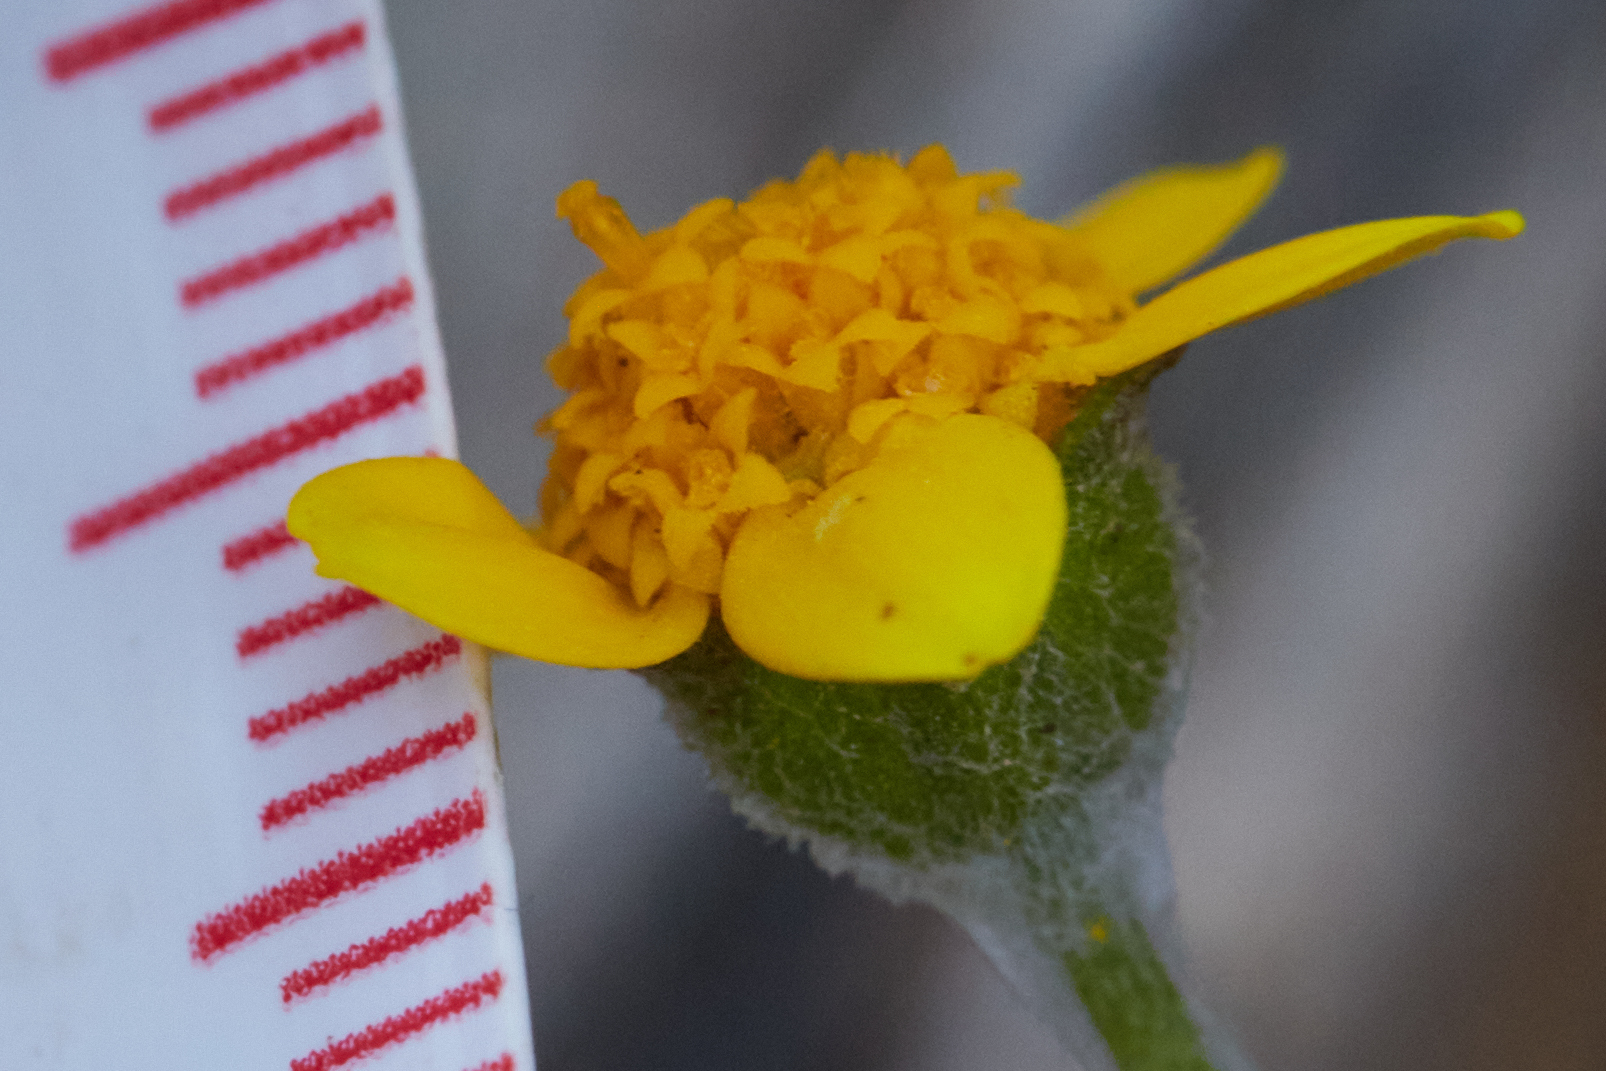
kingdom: Plantae
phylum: Tracheophyta
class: Magnoliopsida
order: Asterales
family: Asteraceae
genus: Monolopia
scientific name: Monolopia gracilens
